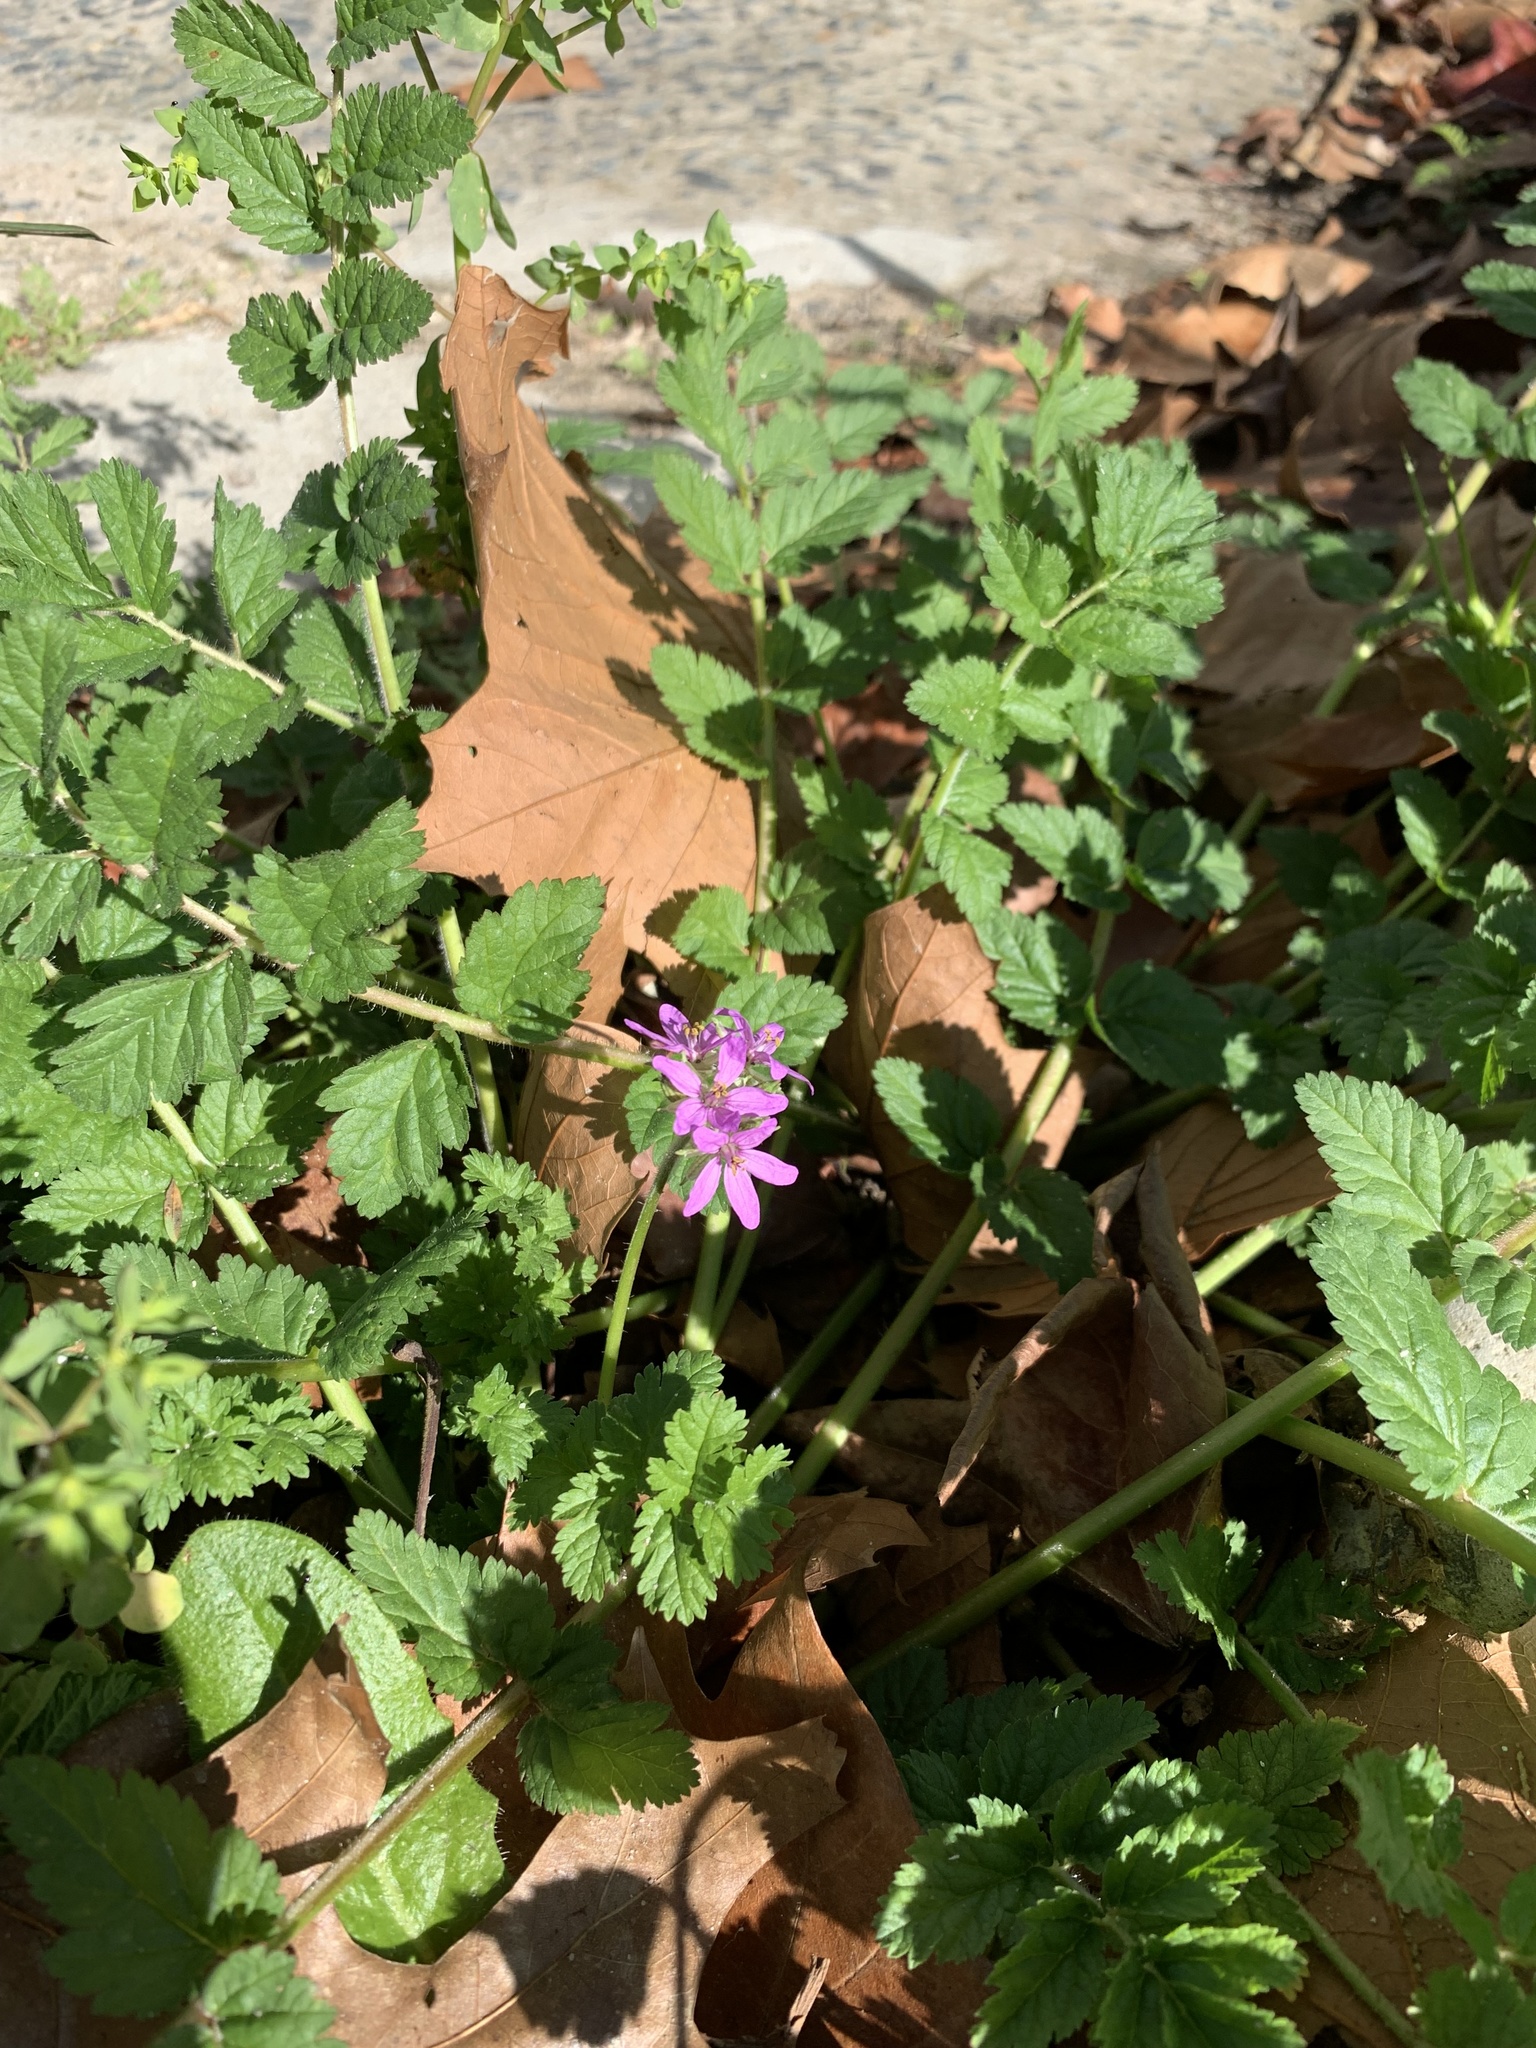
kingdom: Plantae
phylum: Tracheophyta
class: Magnoliopsida
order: Geraniales
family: Geraniaceae
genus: Erodium
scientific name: Erodium moschatum
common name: Musk stork's-bill
